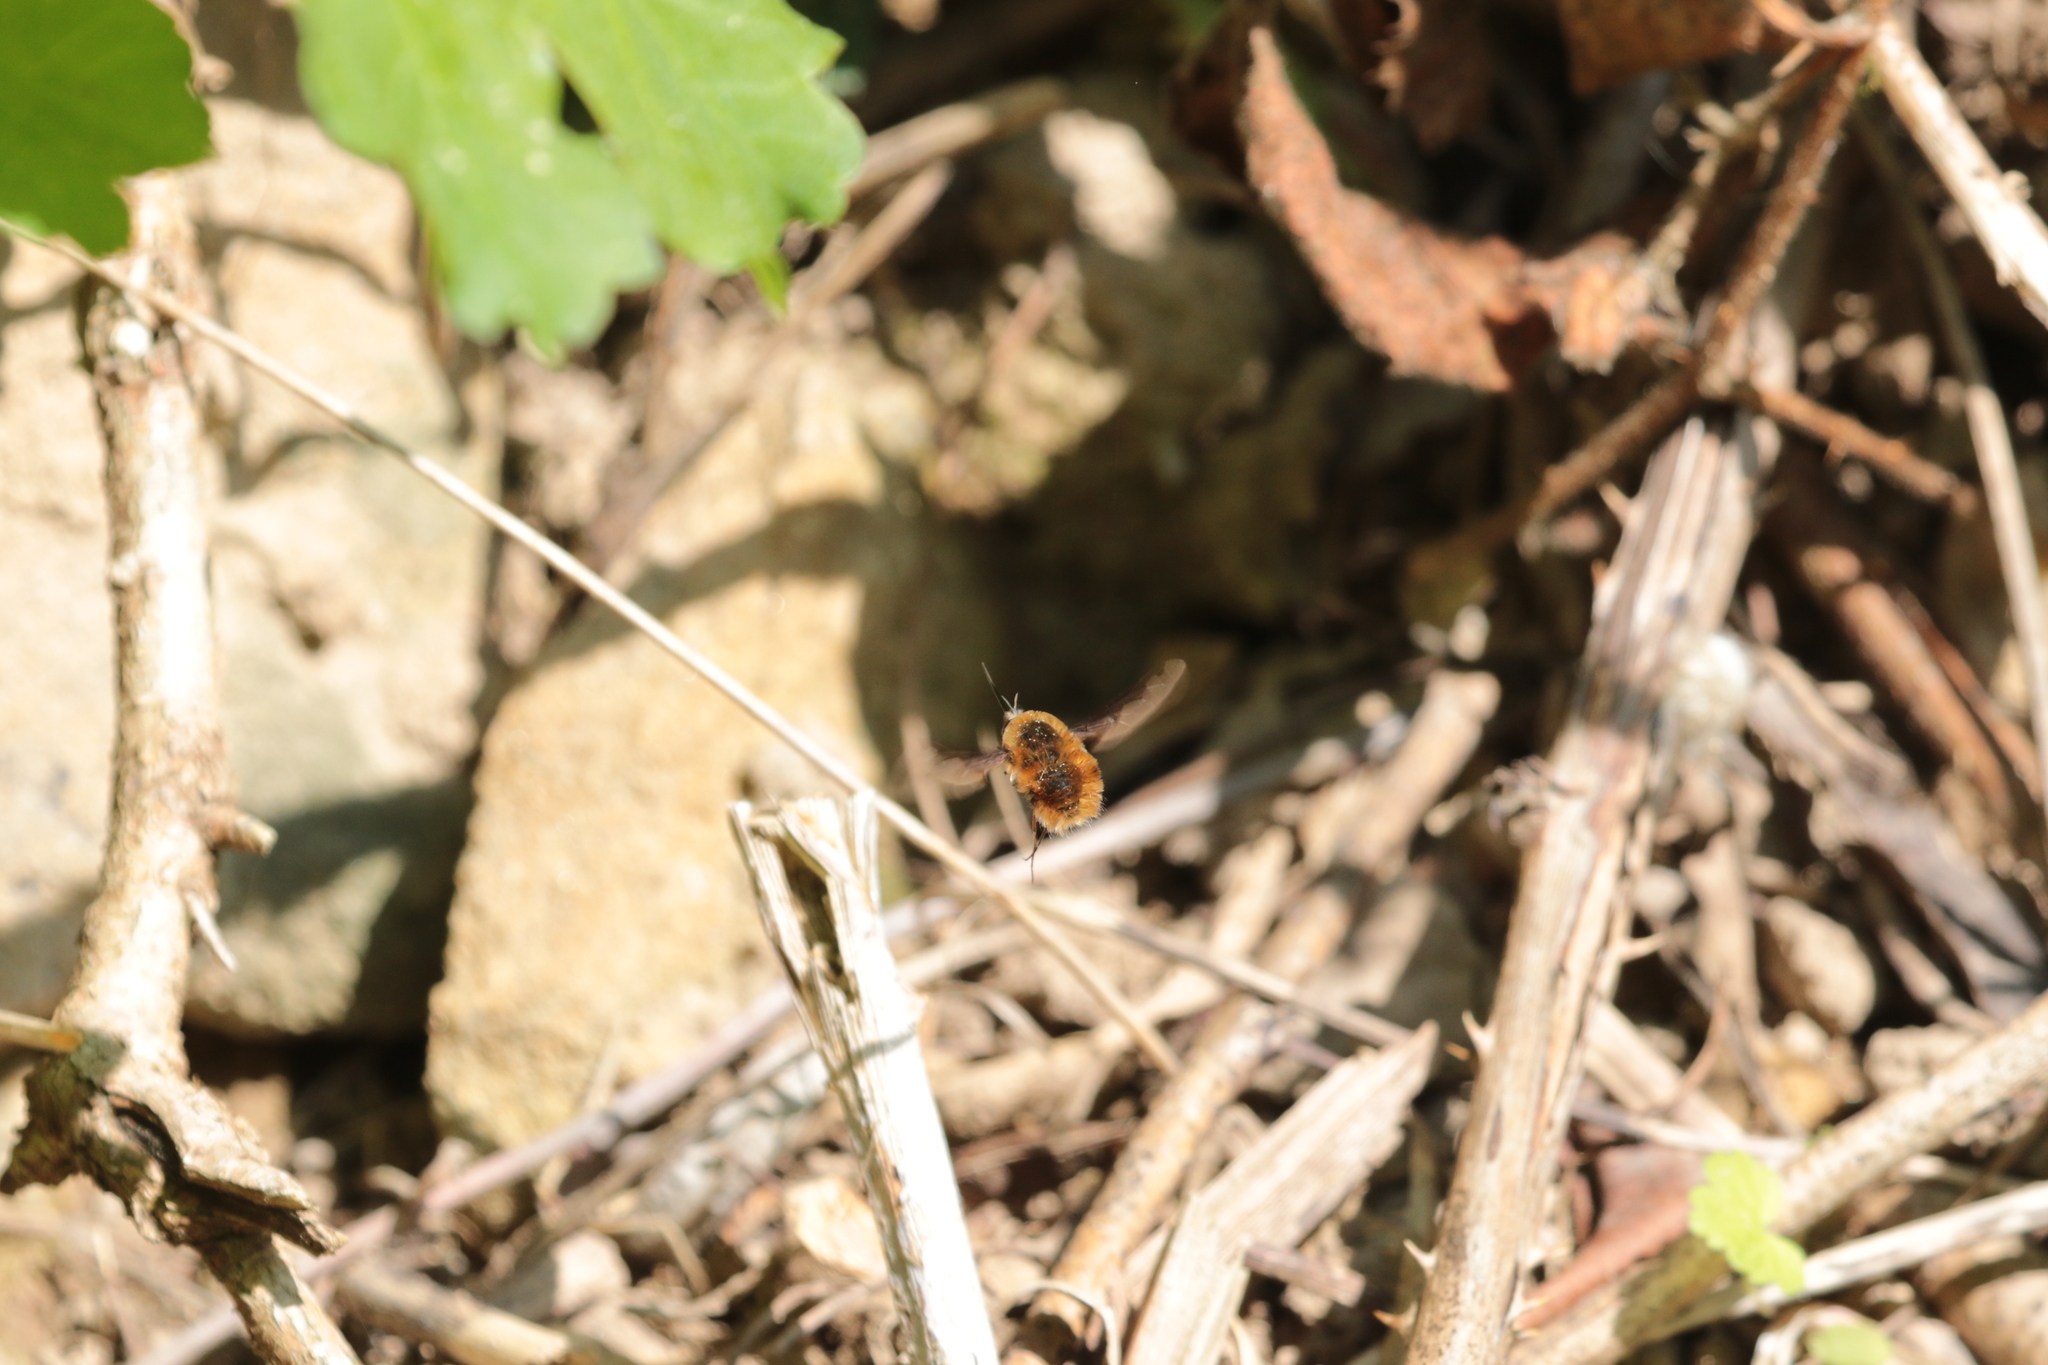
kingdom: Animalia
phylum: Arthropoda
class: Insecta
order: Diptera
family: Bombyliidae
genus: Bombylius
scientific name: Bombylius major
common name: Bee fly
